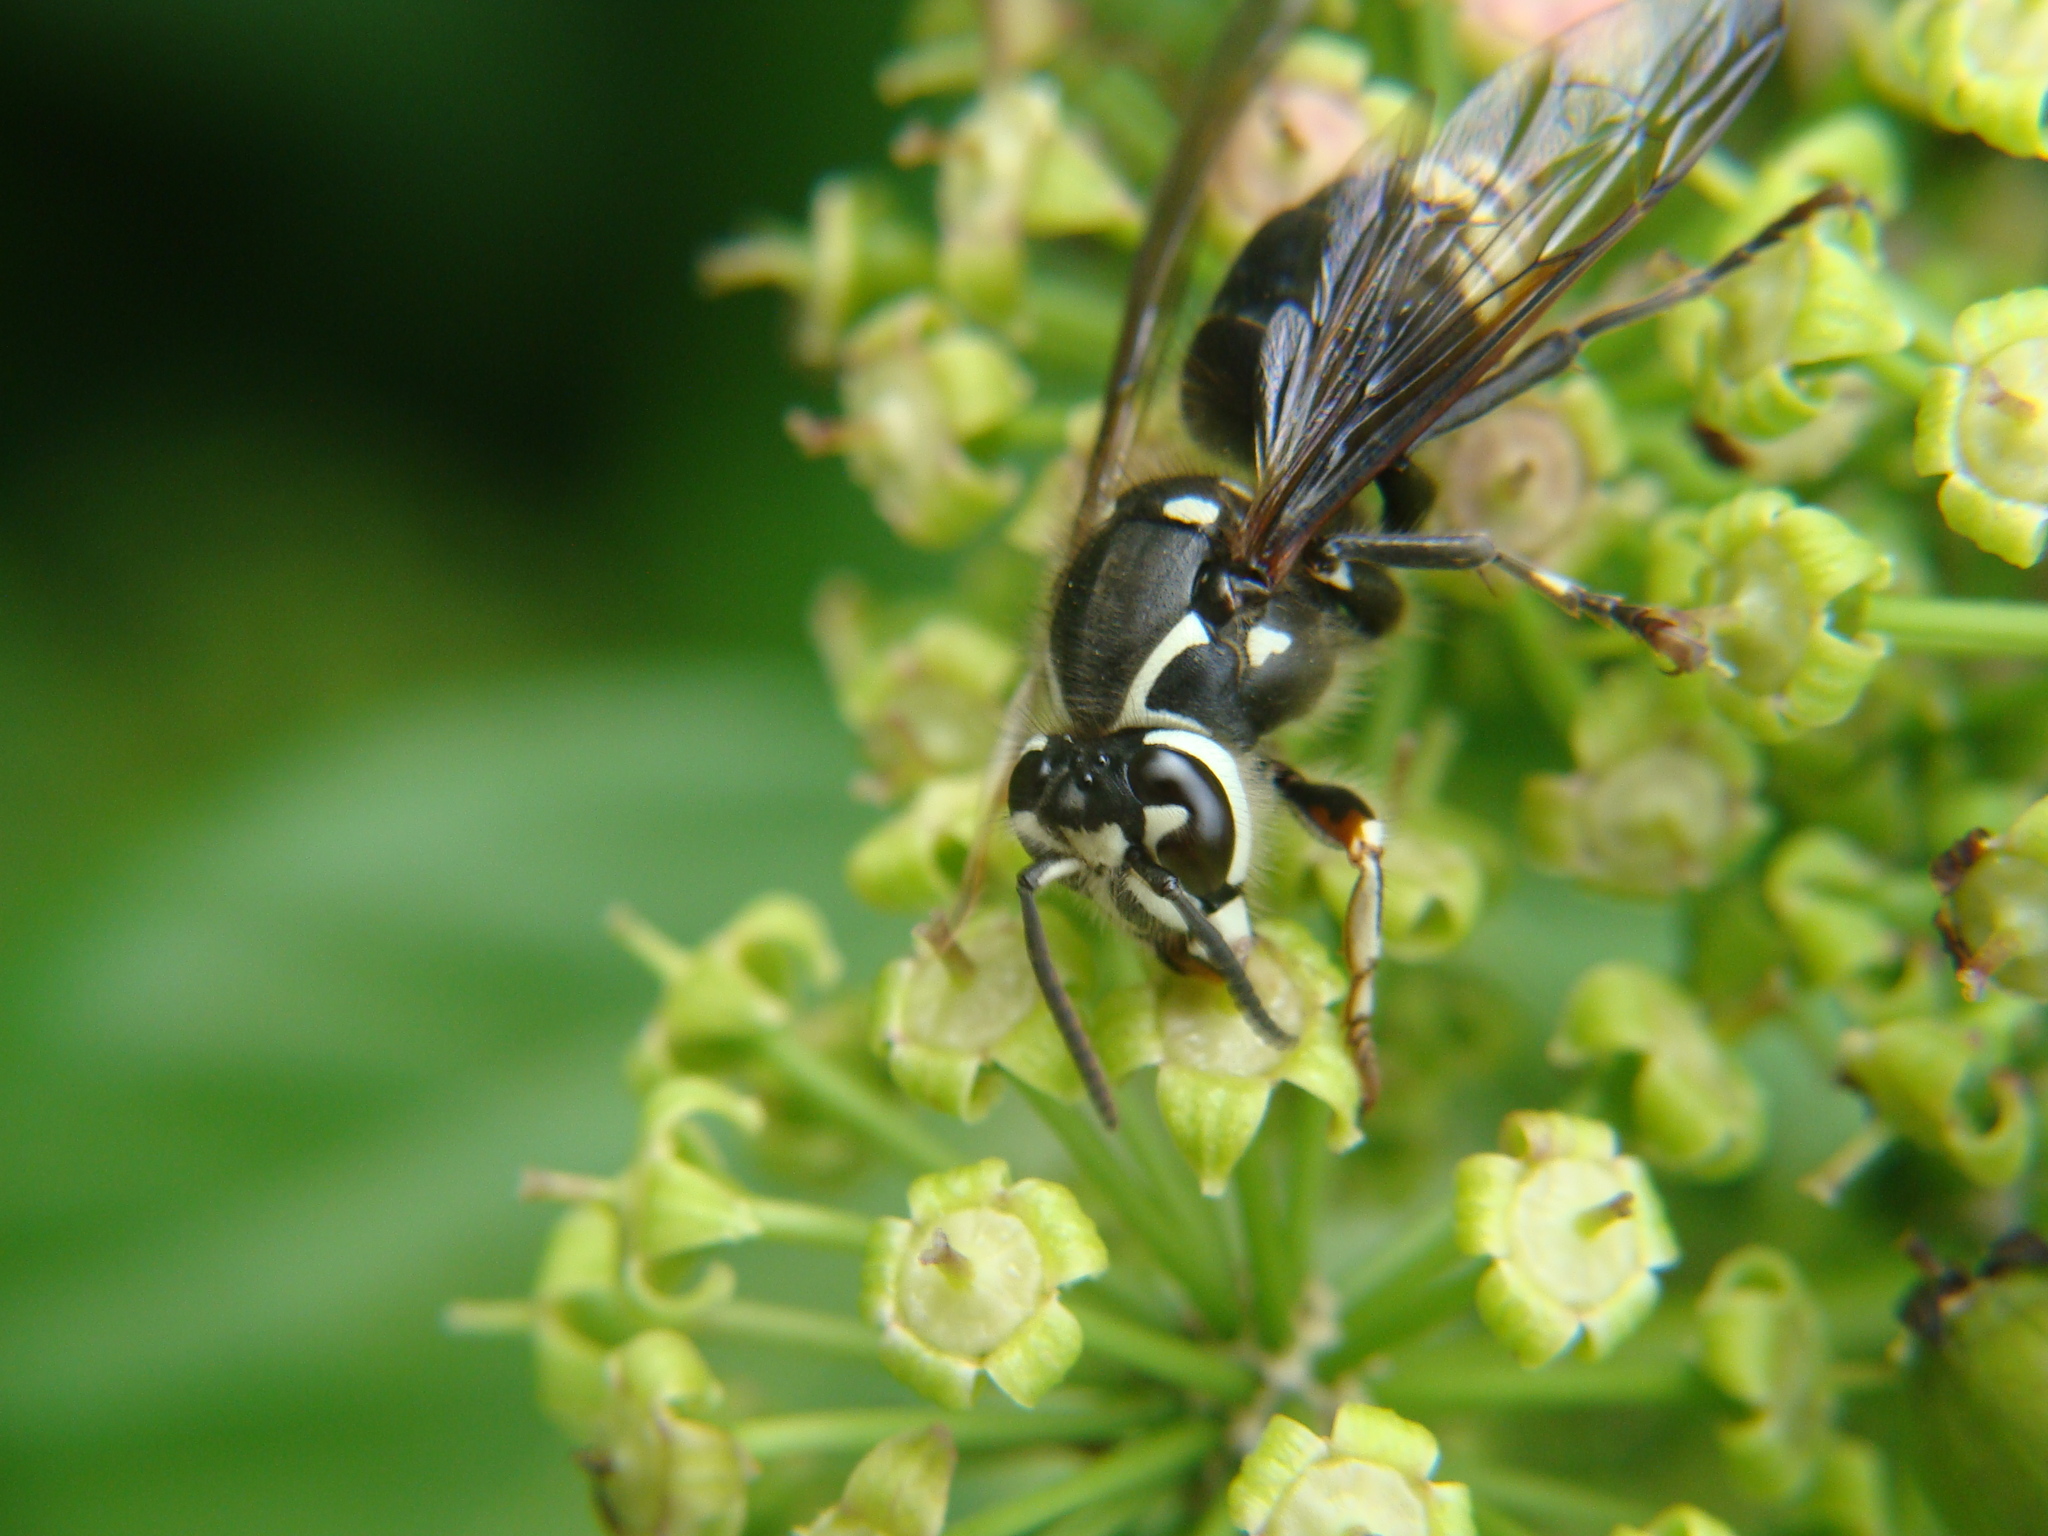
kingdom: Animalia
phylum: Arthropoda
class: Insecta
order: Hymenoptera
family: Vespidae
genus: Dolichovespula
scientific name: Dolichovespula maculata
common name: Bald-faced hornet
